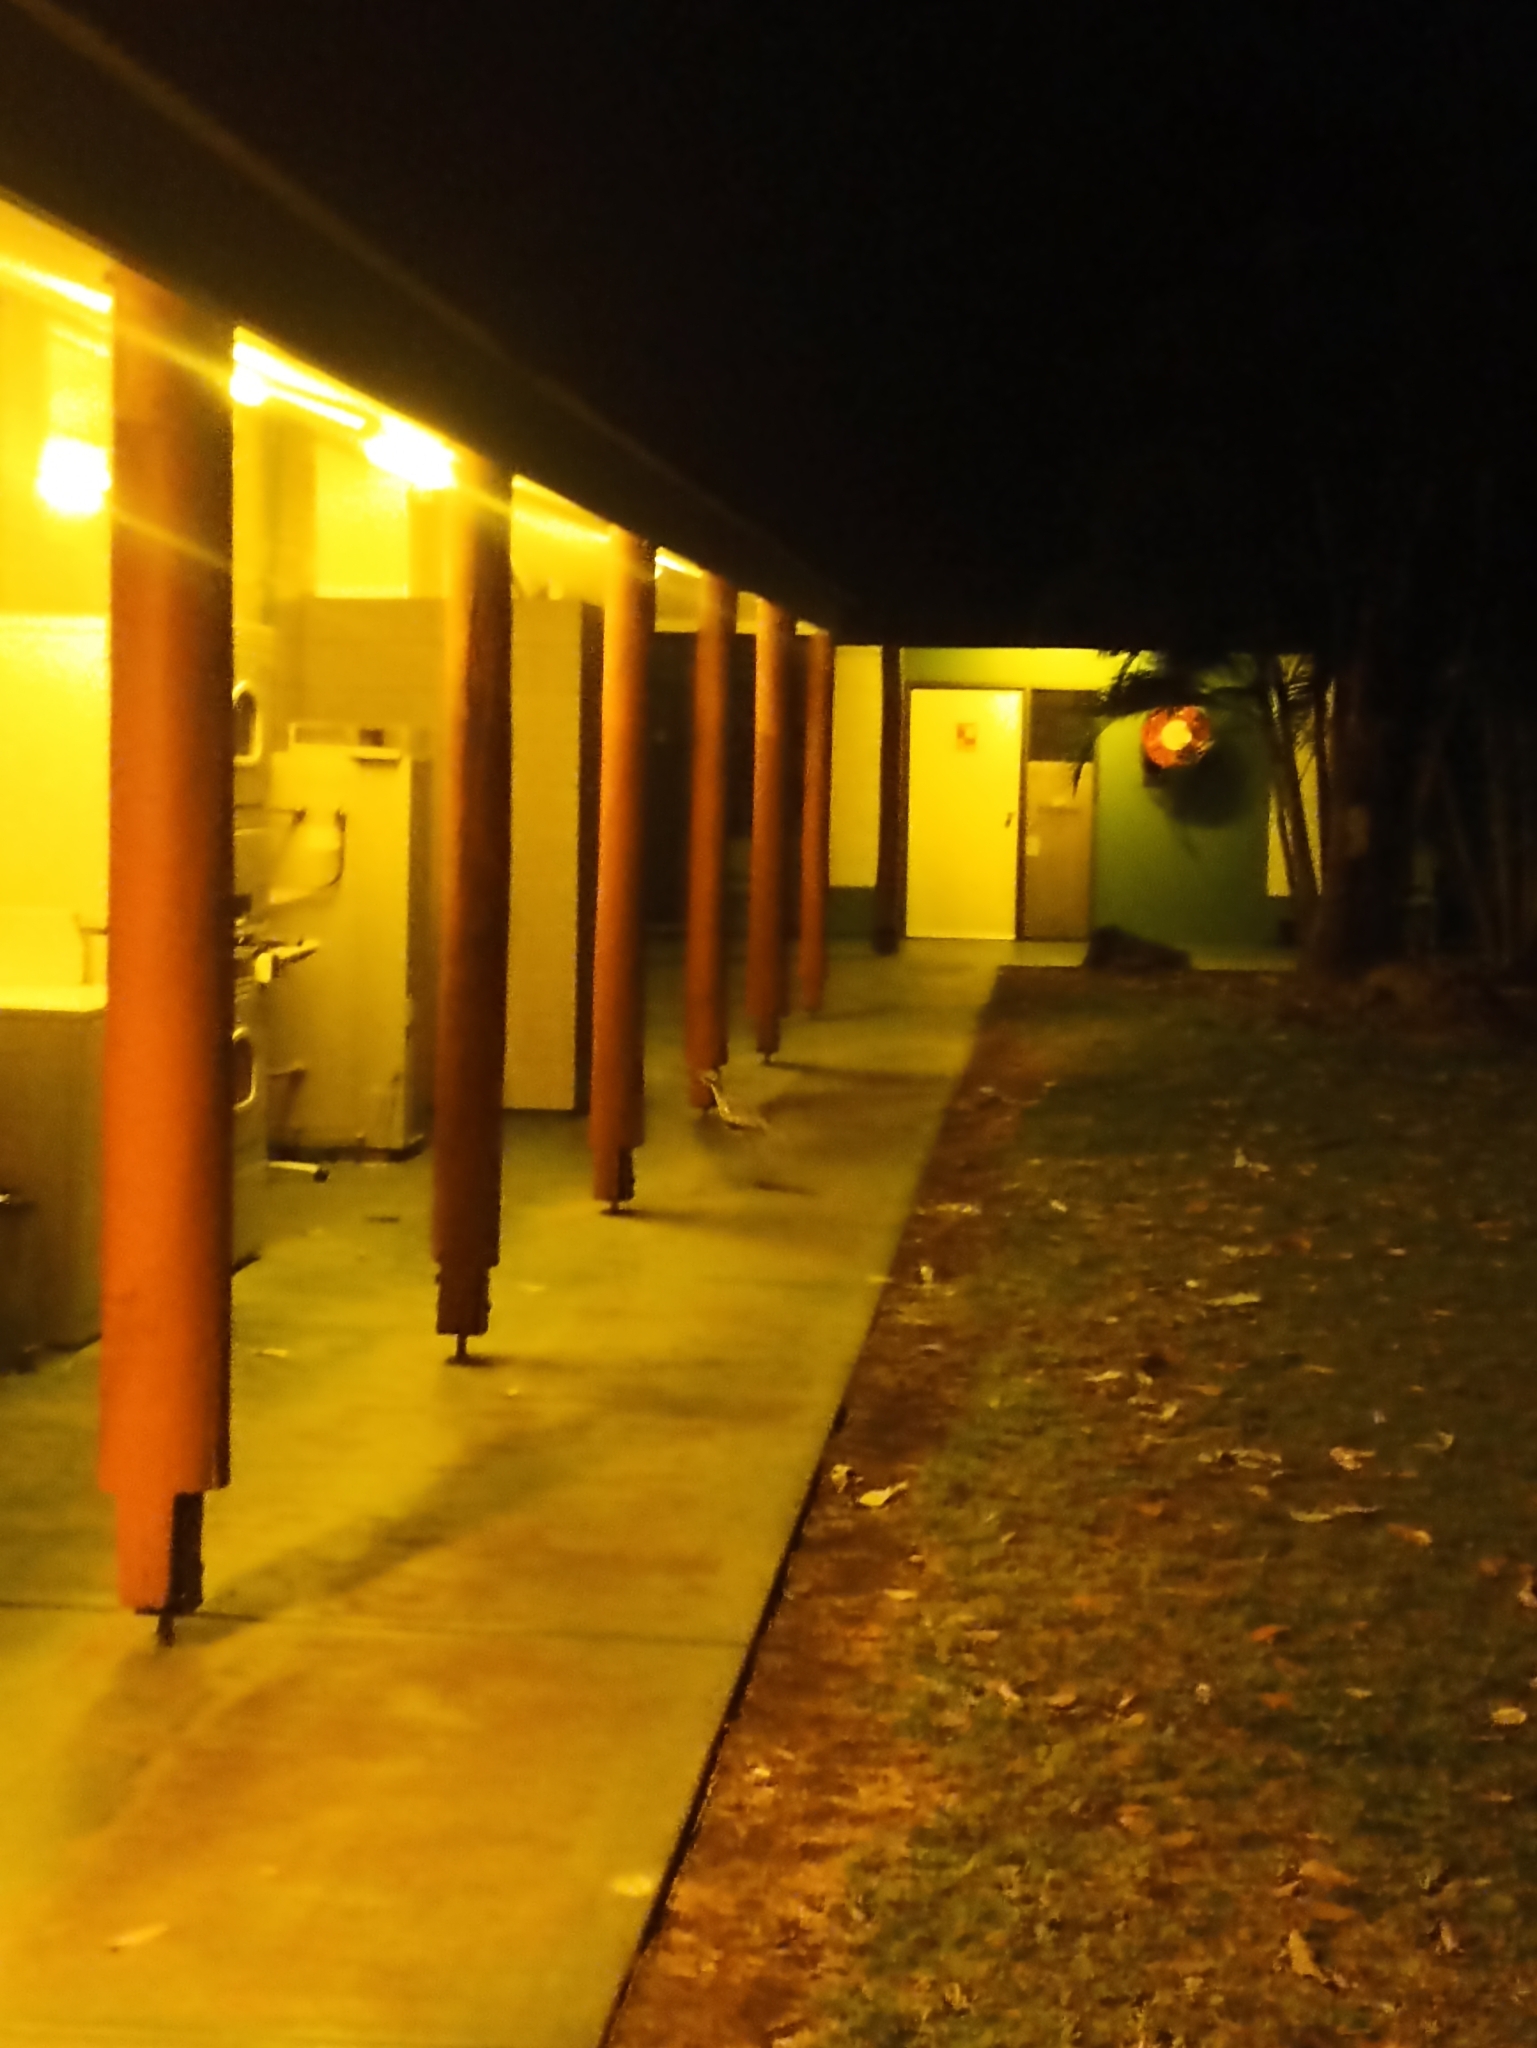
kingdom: Animalia
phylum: Chordata
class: Aves
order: Charadriiformes
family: Burhinidae
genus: Burhinus
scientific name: Burhinus grallarius
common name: Bush stone-curlew
